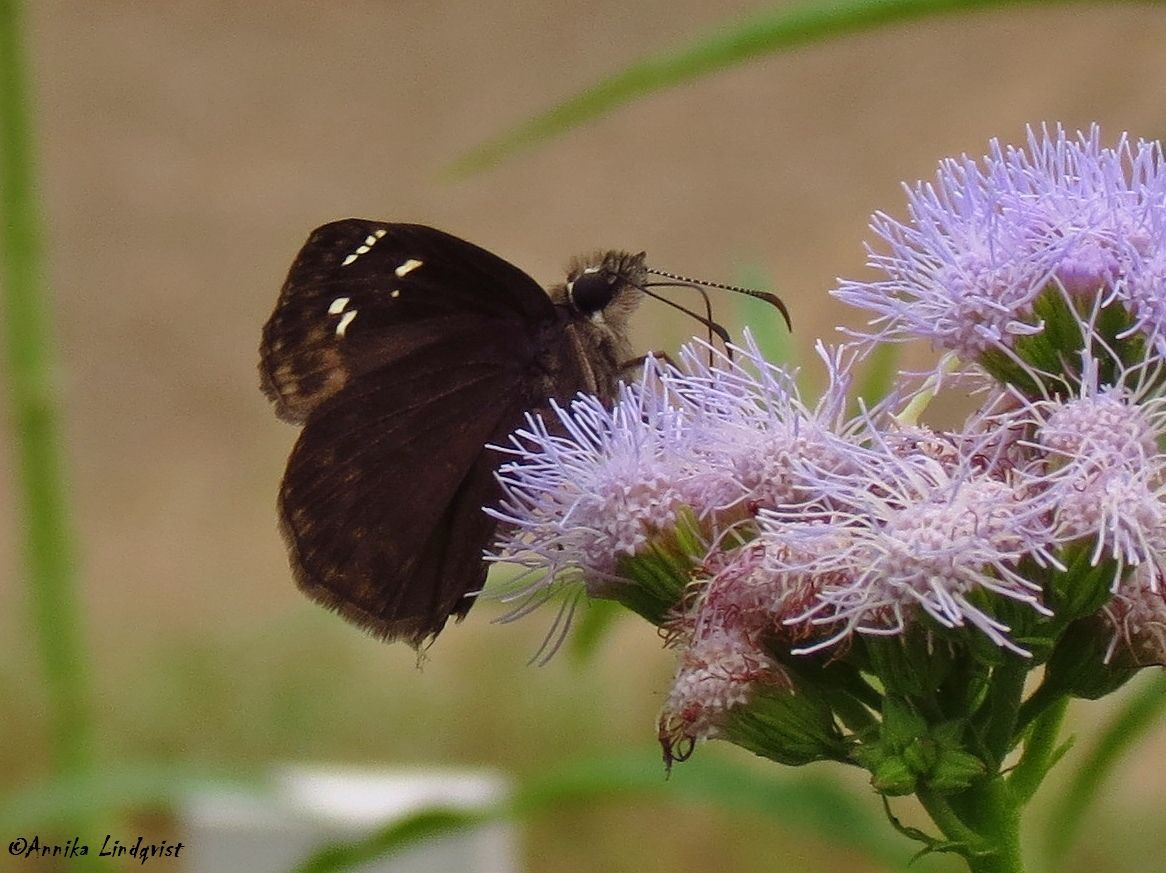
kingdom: Animalia
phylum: Arthropoda
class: Insecta
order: Lepidoptera
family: Hesperiidae
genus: Erynnis
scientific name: Erynnis horatius
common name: Horace's duskywing
